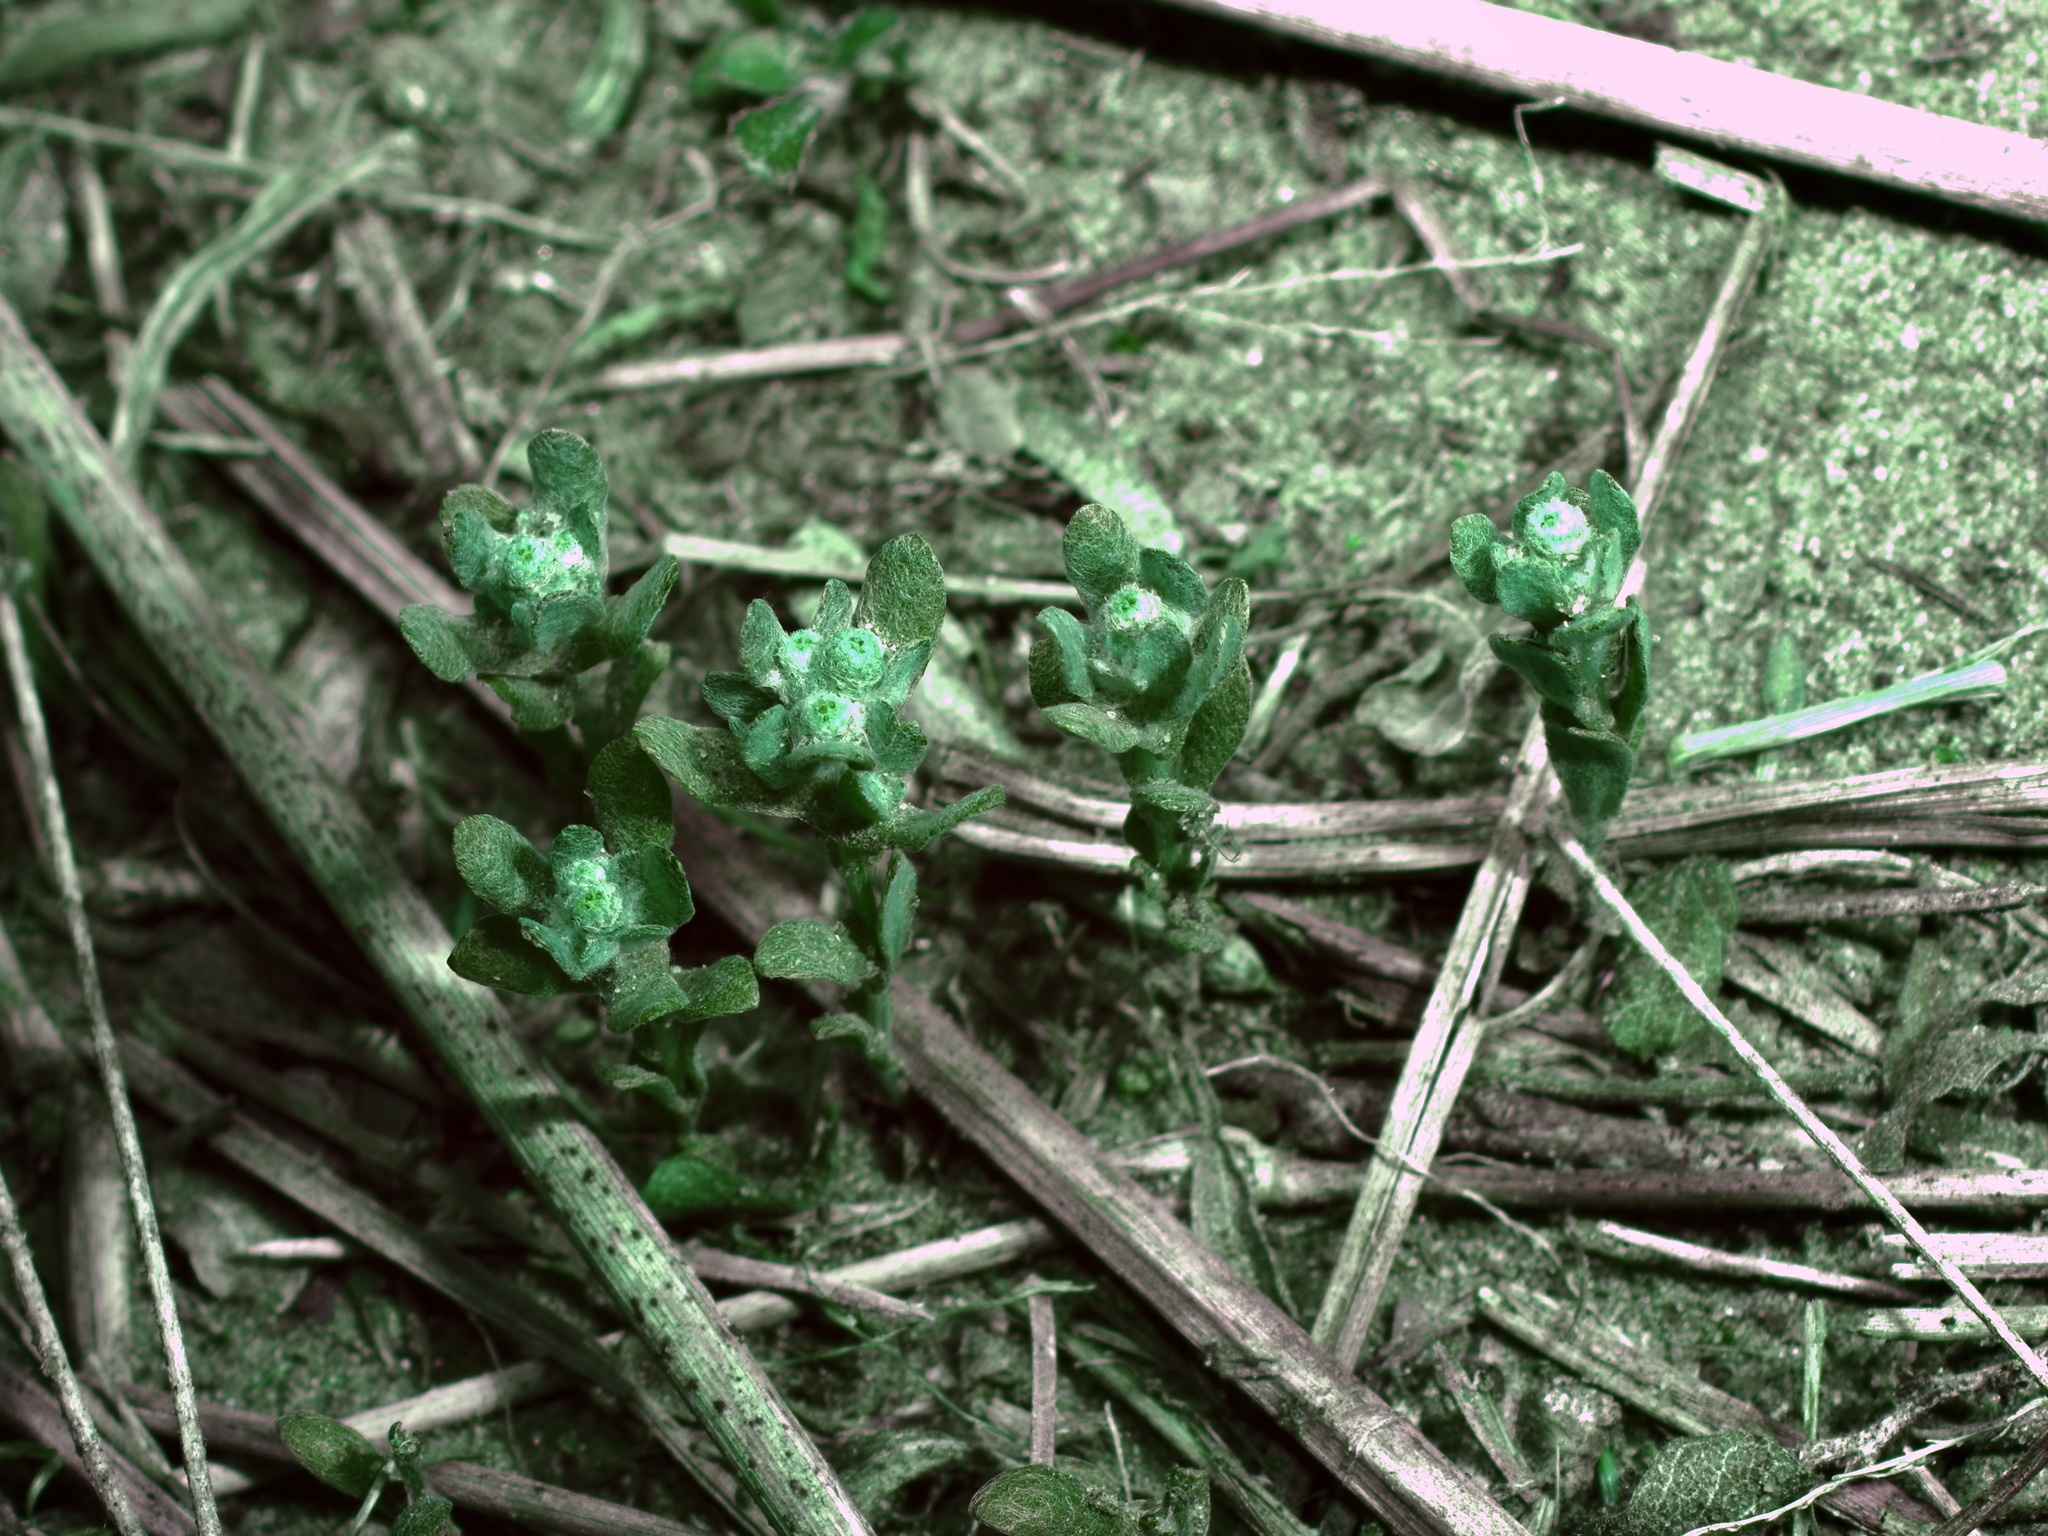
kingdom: Plantae
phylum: Tracheophyta
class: Magnoliopsida
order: Asterales
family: Asteraceae
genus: Diaperia
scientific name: Diaperia verna
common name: Many-stem rabbit-tobacco
